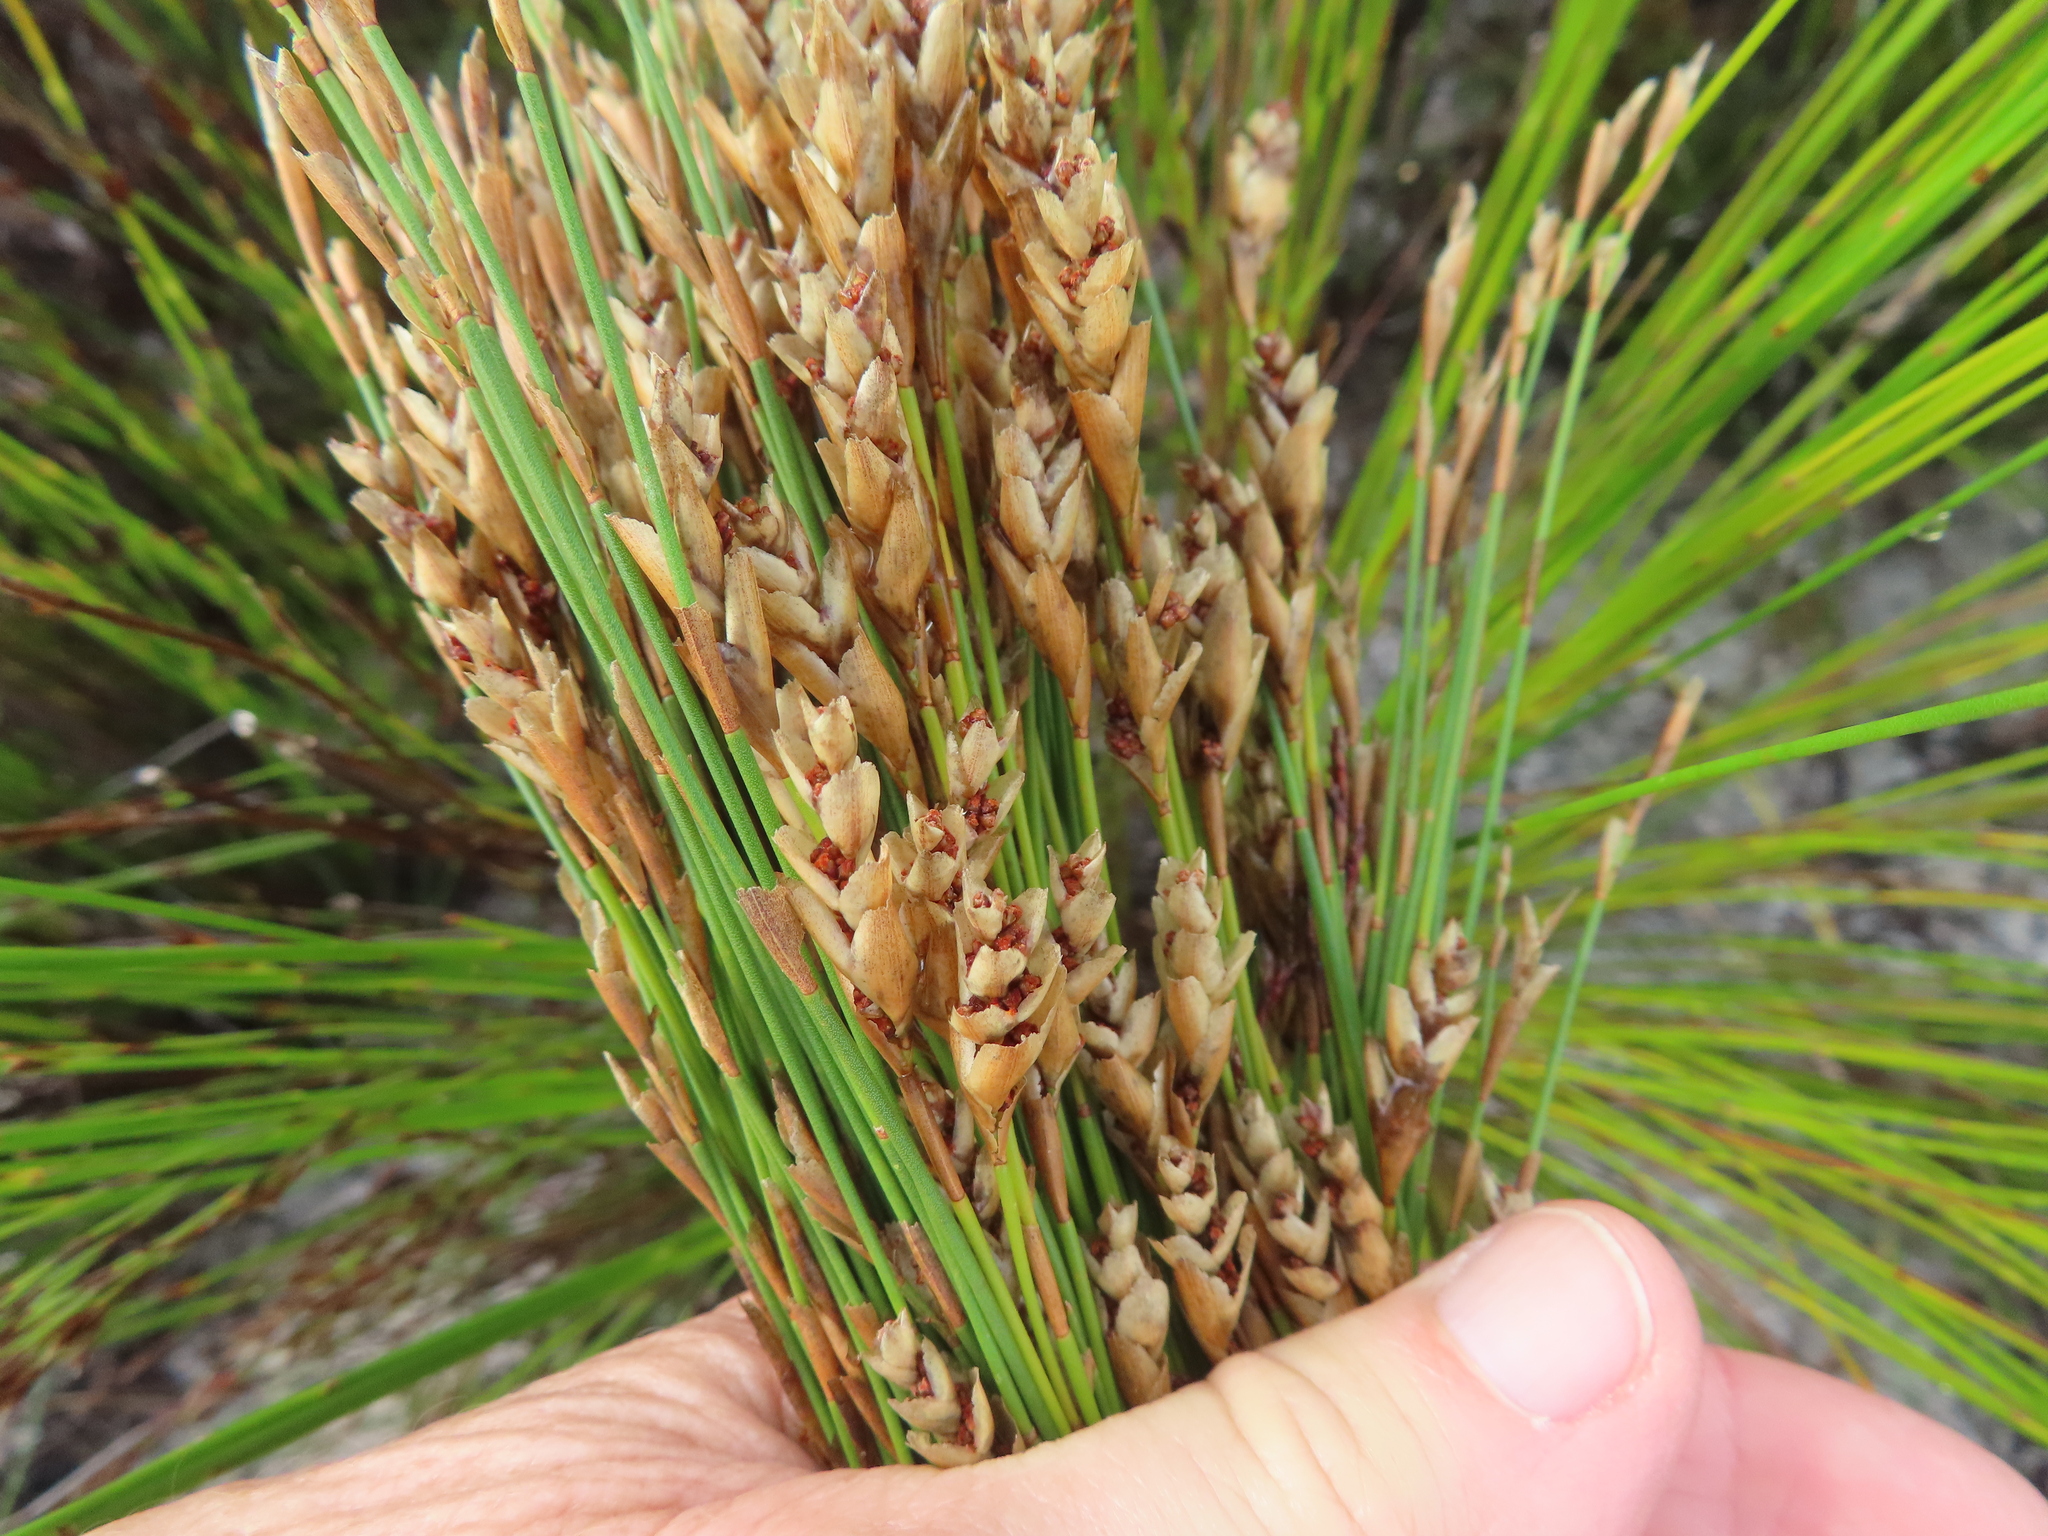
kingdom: Plantae
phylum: Tracheophyta
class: Liliopsida
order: Poales
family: Restionaceae
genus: Elegia
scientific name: Elegia filacea
